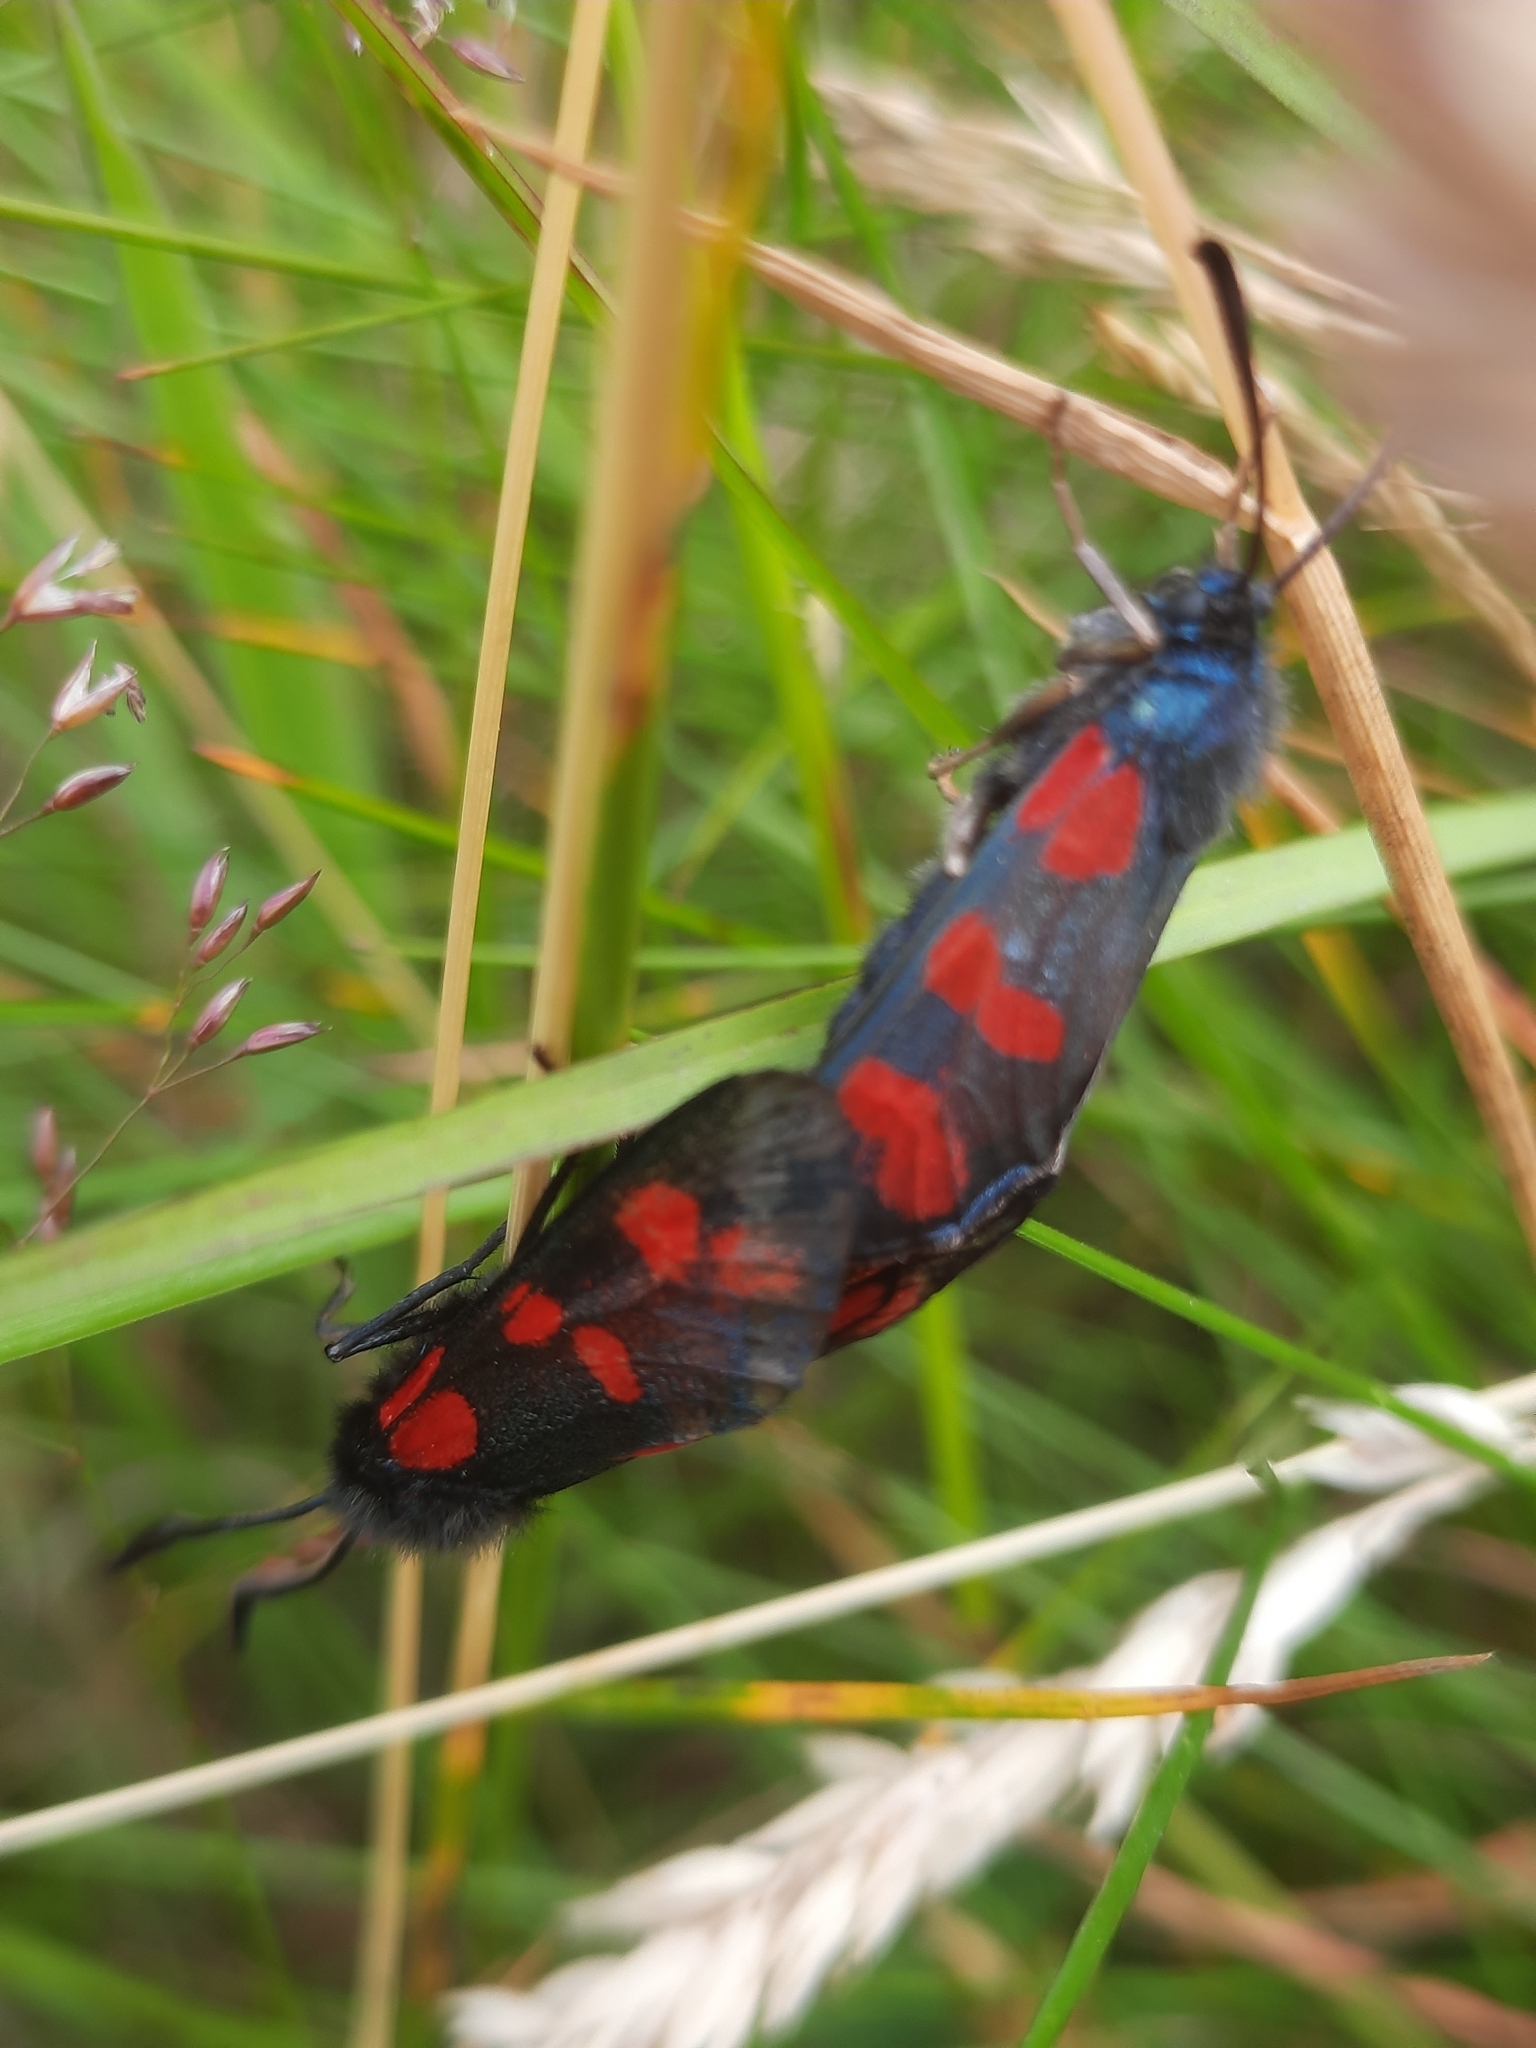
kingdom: Animalia
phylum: Arthropoda
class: Insecta
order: Lepidoptera
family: Zygaenidae
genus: Zygaena
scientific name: Zygaena filipendulae
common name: Six-spot burnet
